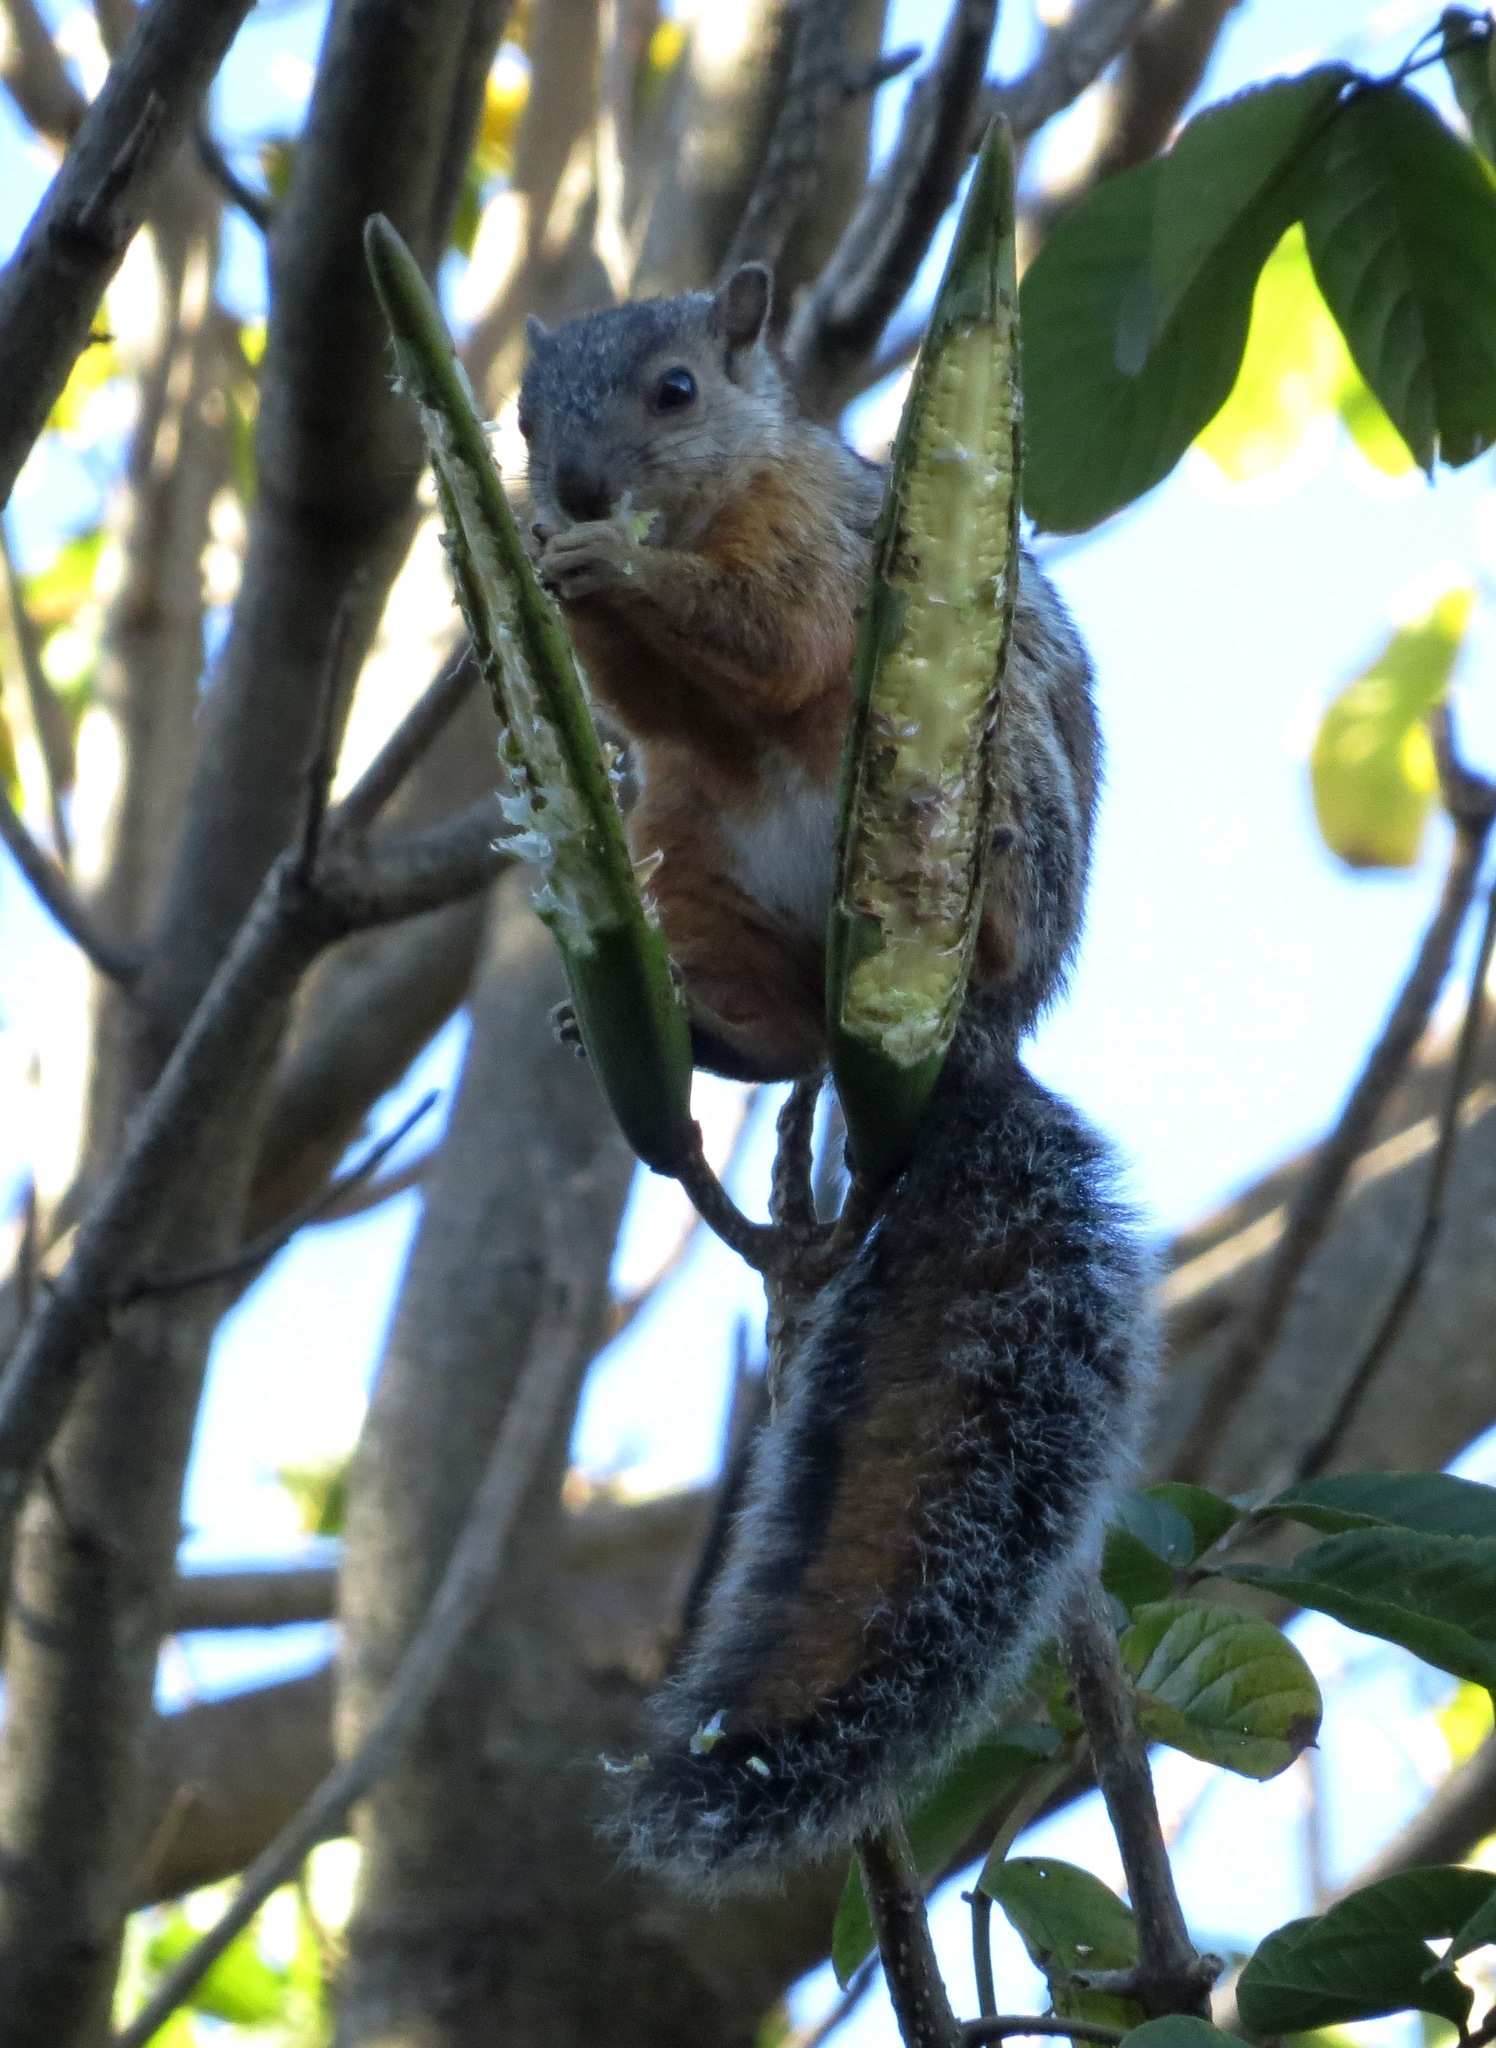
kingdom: Animalia
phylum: Chordata
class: Mammalia
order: Rodentia
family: Sciuridae
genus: Sciurus
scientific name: Sciurus variegatoides
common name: Variegated squirrel
